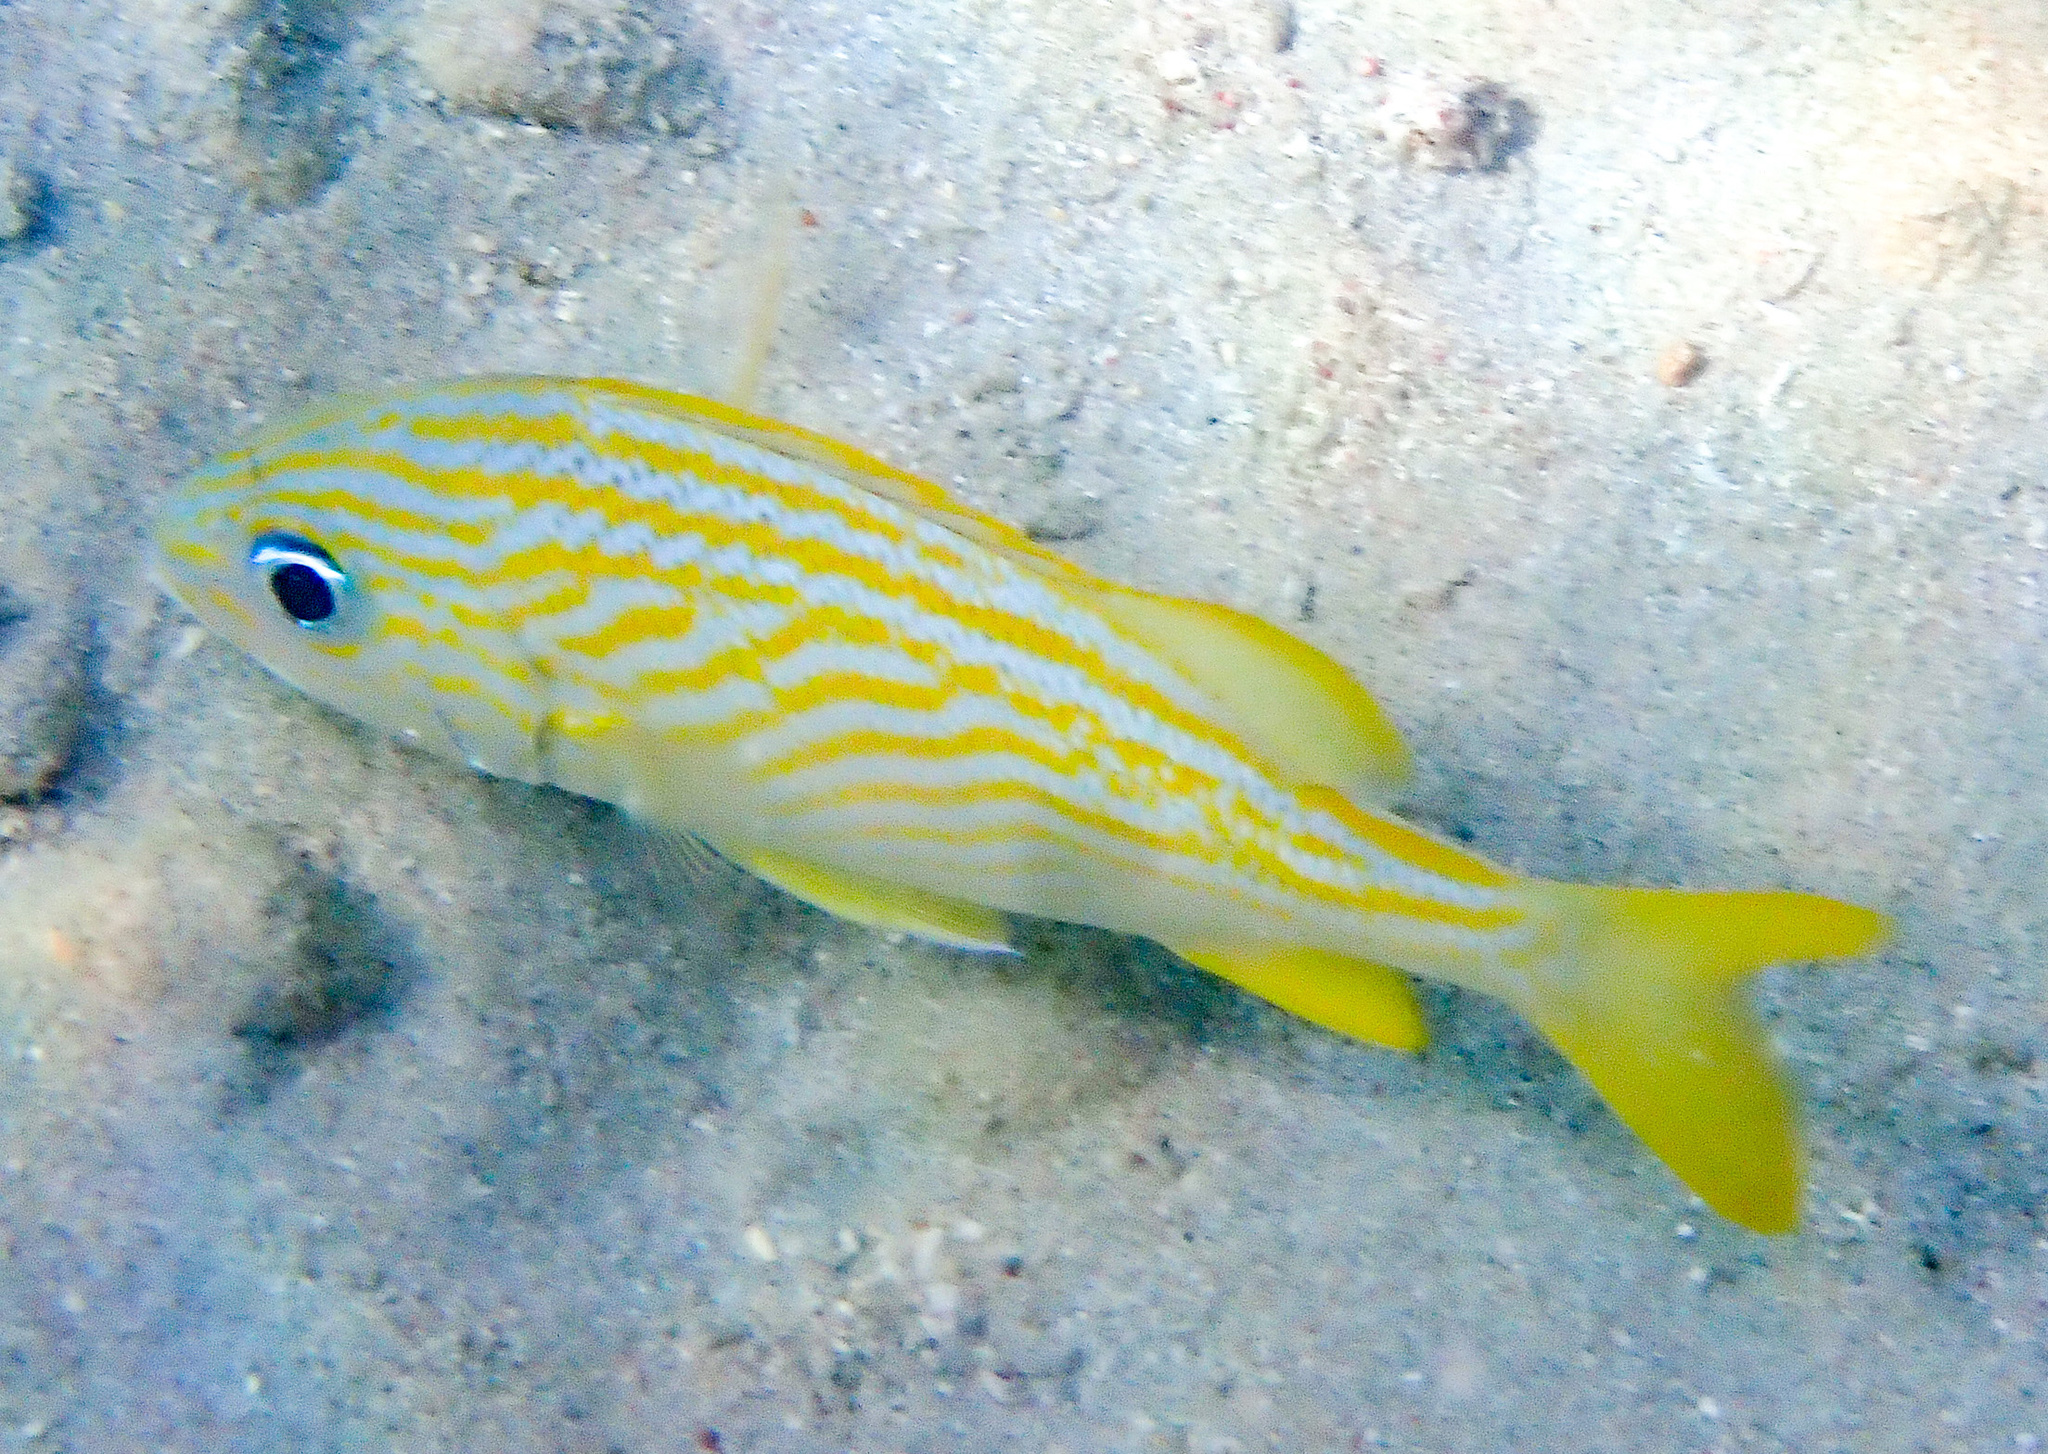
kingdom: Animalia
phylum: Chordata
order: Perciformes
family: Haemulidae
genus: Haemulon
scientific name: Haemulon flavolineatum
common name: French grunt
